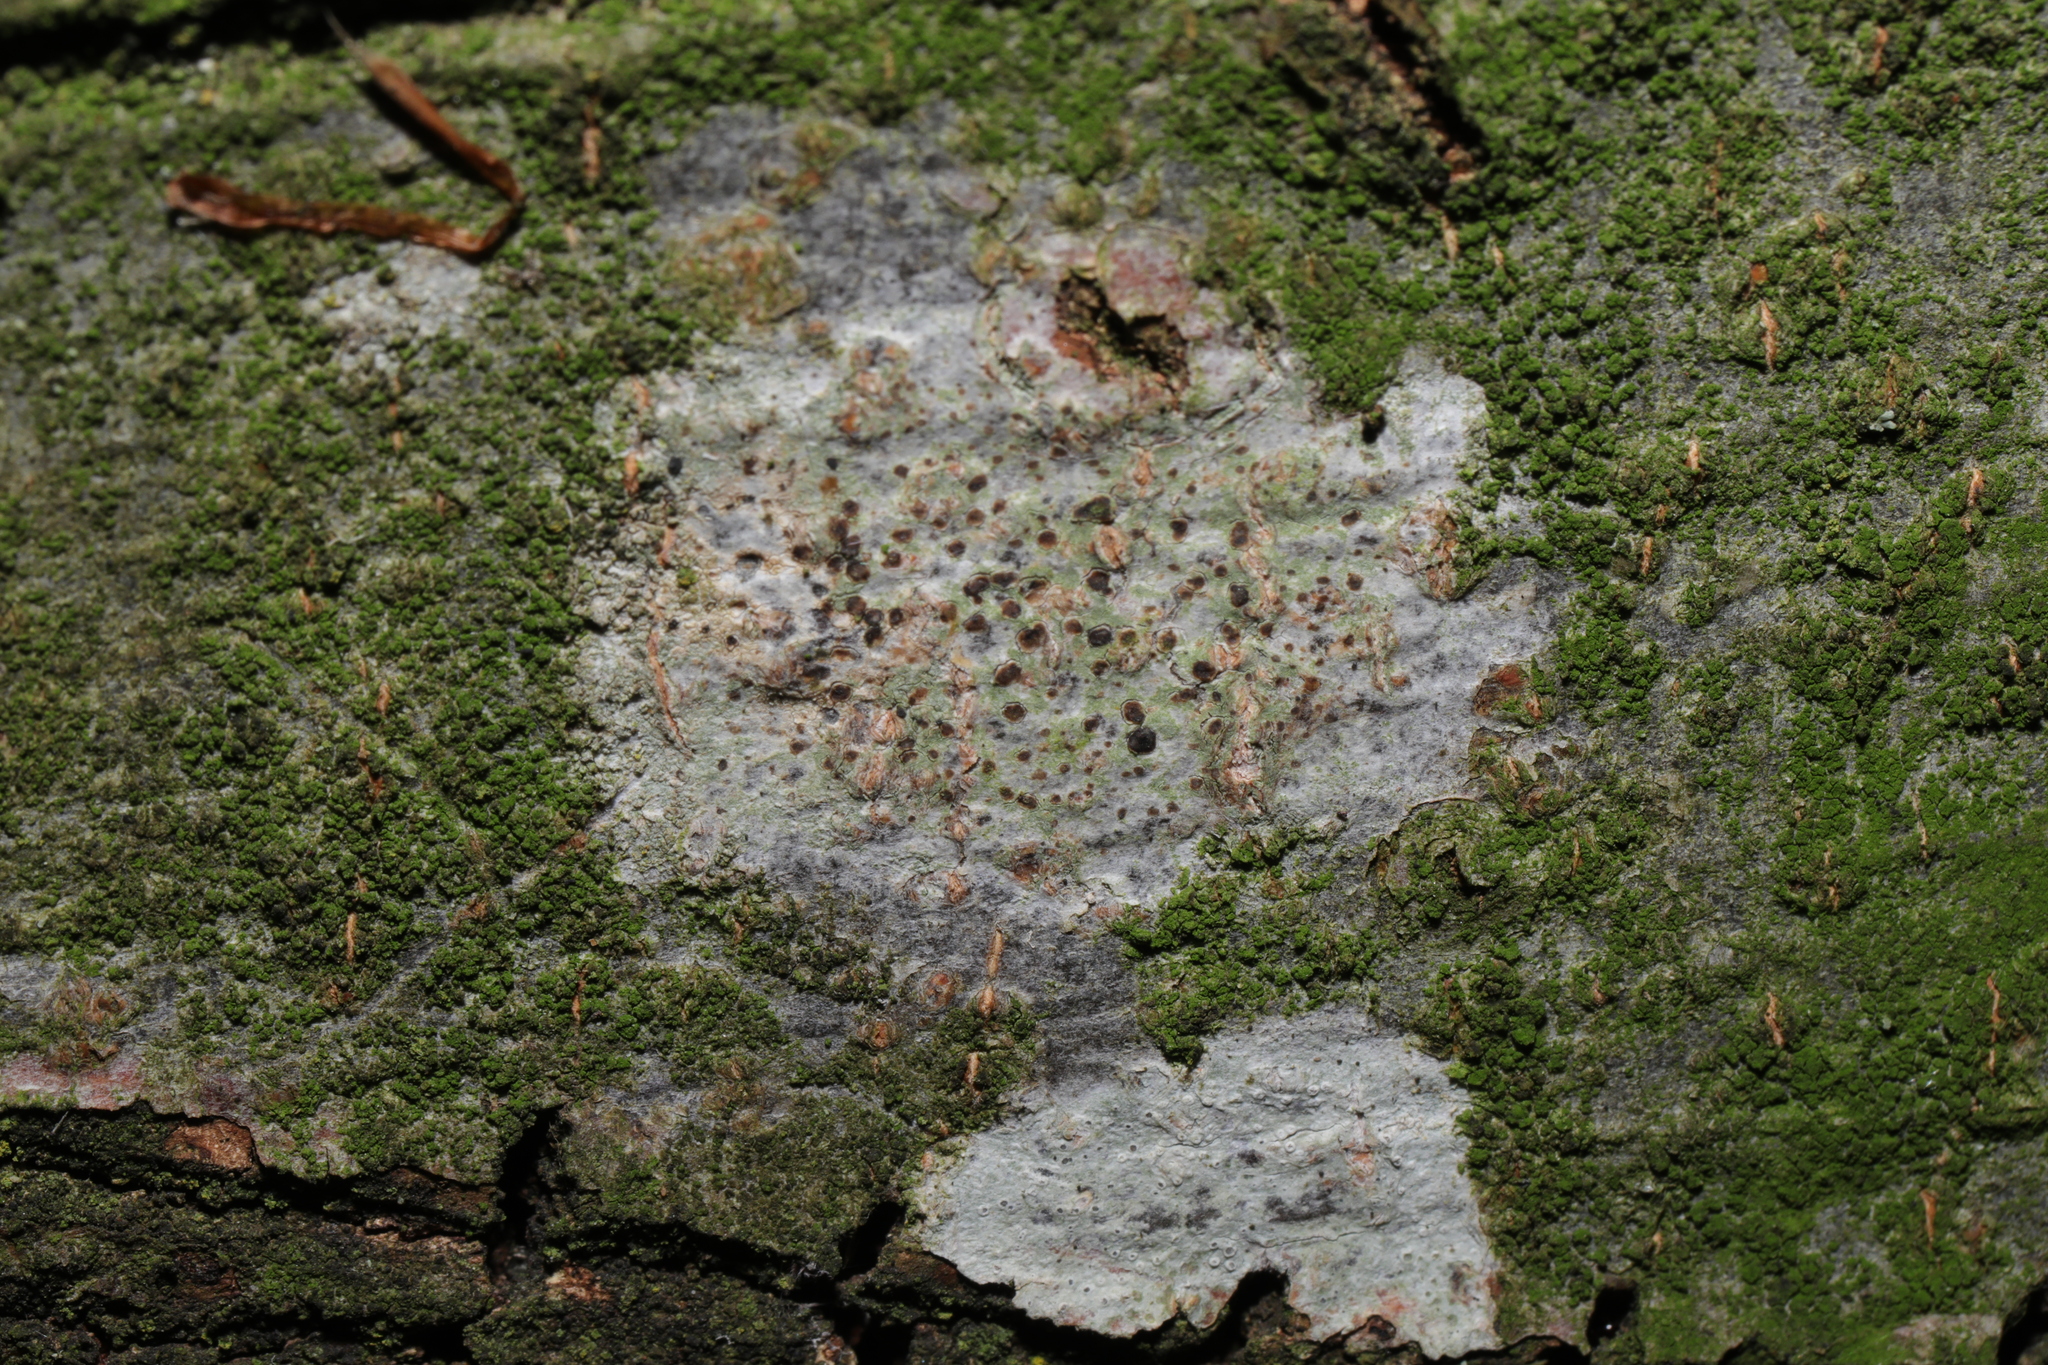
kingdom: Fungi
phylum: Ascomycota
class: Lecanoromycetes
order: Lecanorales
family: Lecanoraceae
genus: Lecidella
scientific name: Lecidella elaeochroma
